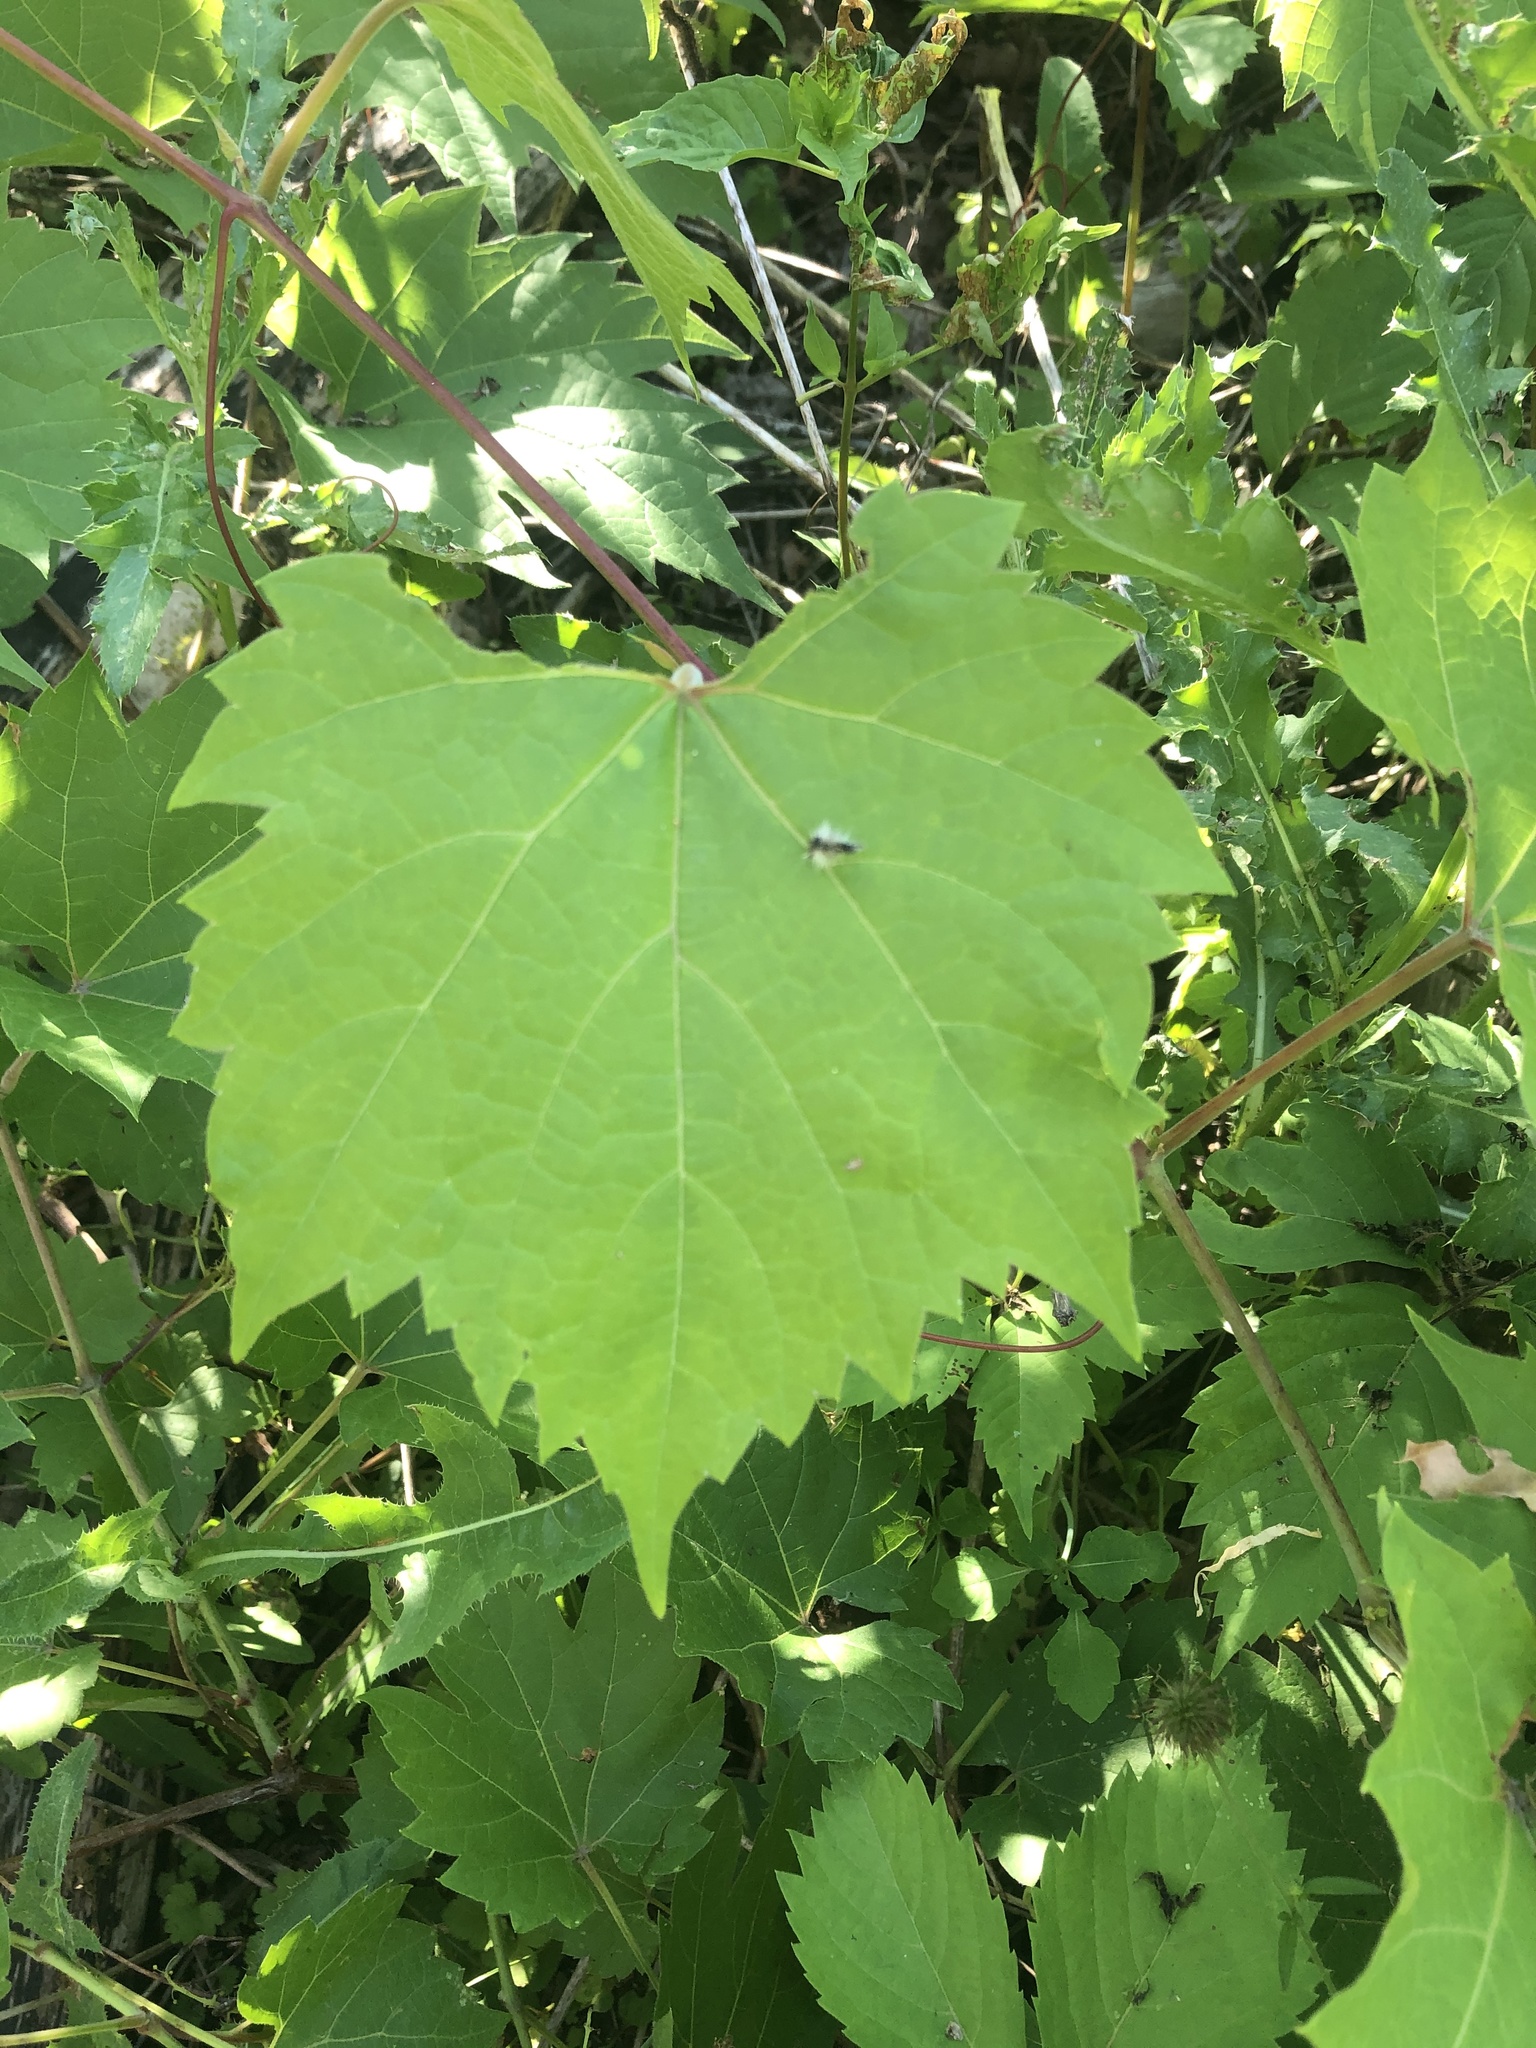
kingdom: Plantae
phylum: Tracheophyta
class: Magnoliopsida
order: Vitales
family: Vitaceae
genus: Vitis
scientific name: Vitis riparia
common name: Frost grape
